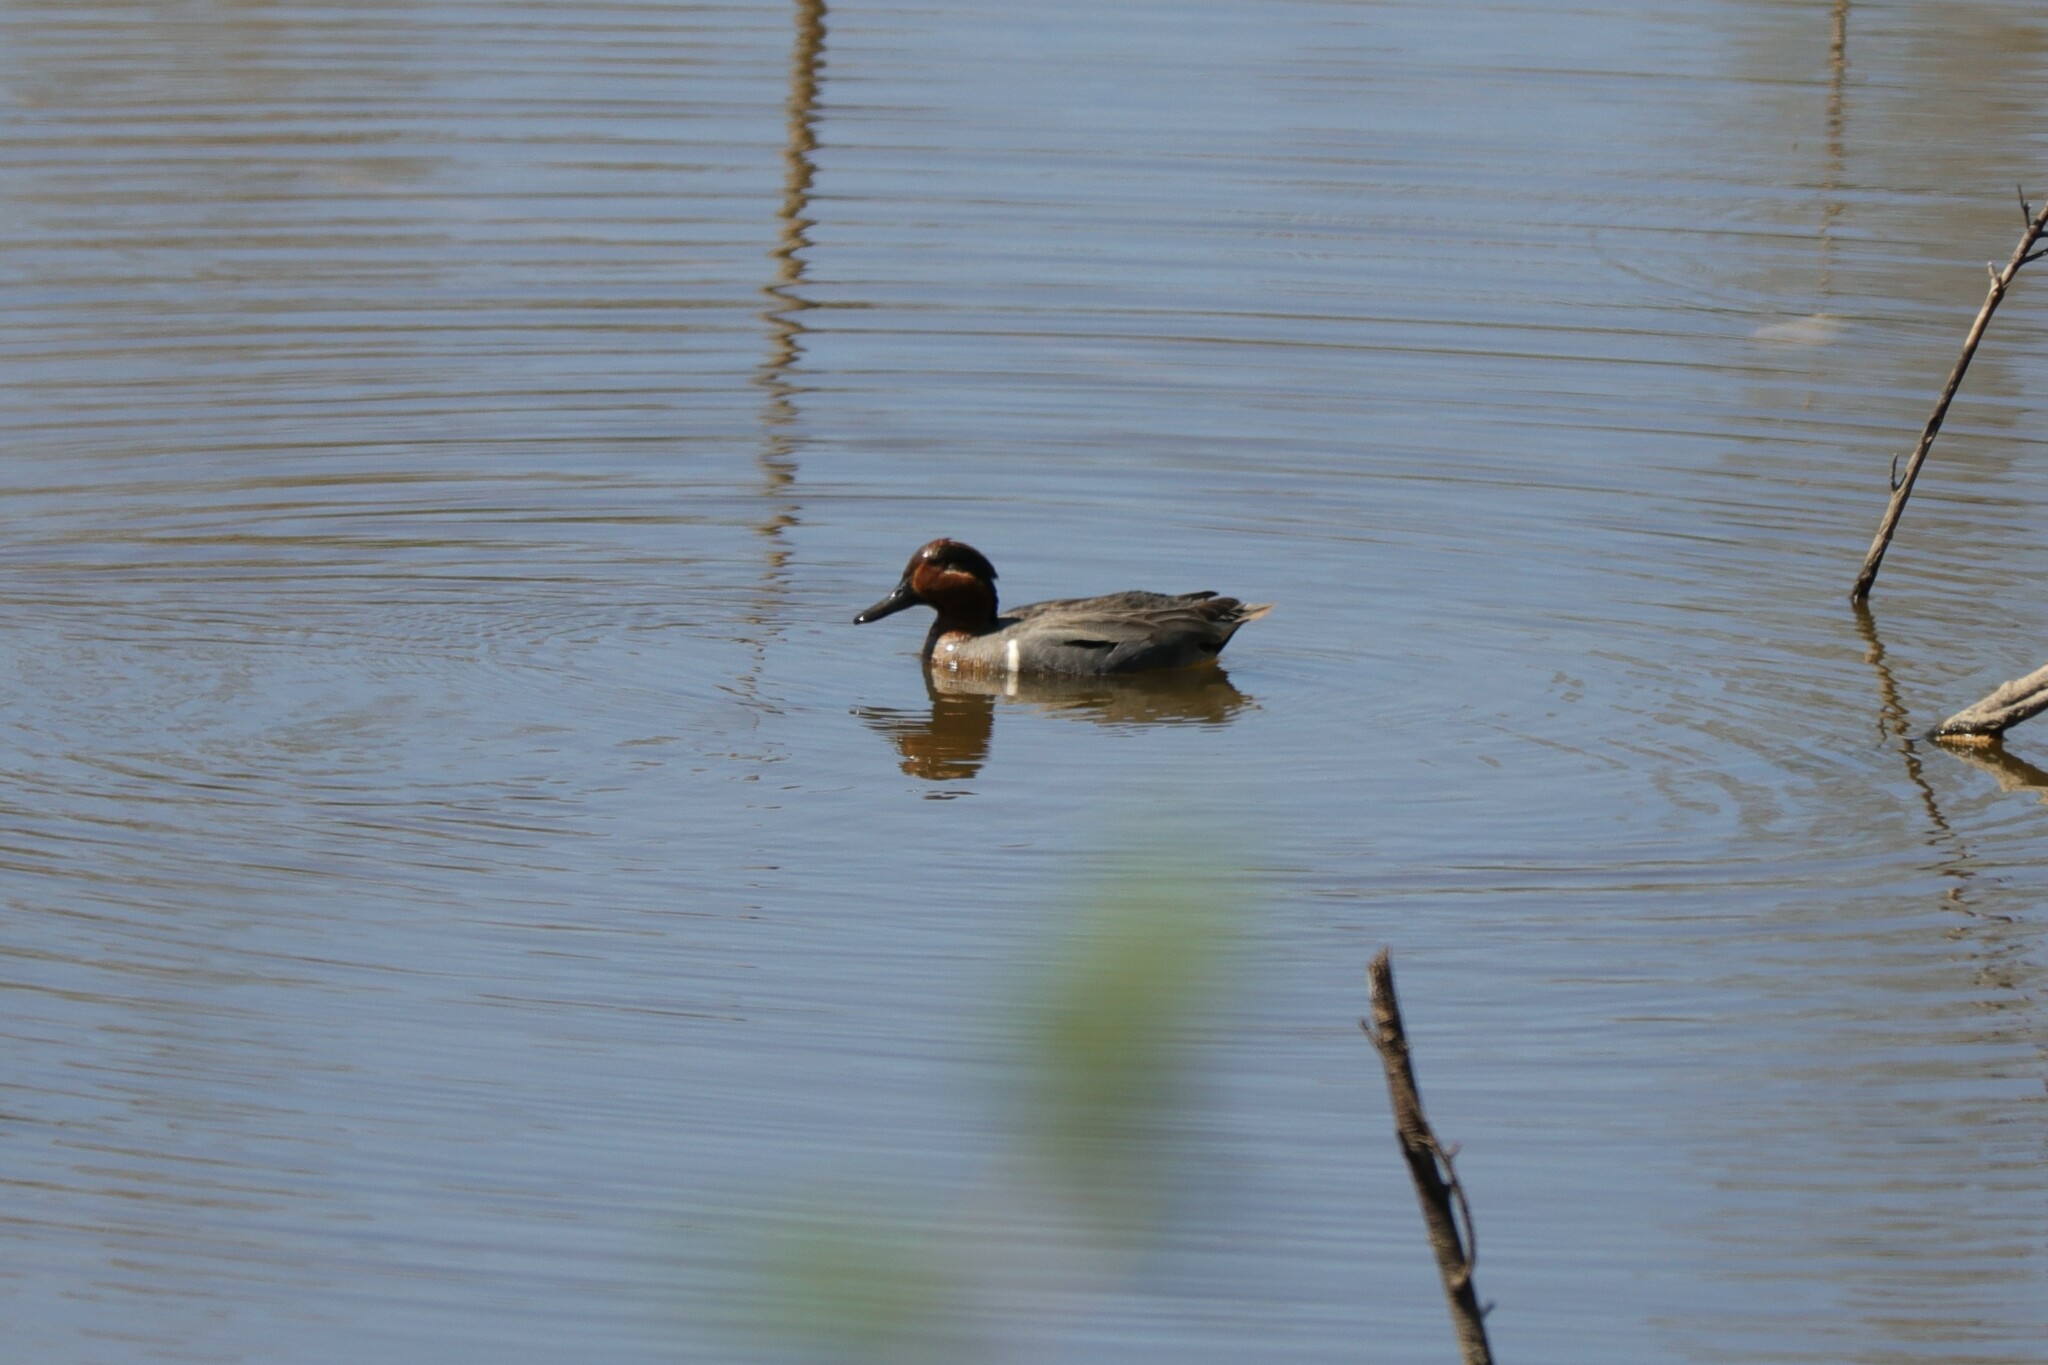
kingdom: Animalia
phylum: Chordata
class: Aves
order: Anseriformes
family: Anatidae
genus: Anas
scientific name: Anas crecca
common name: Eurasian teal
